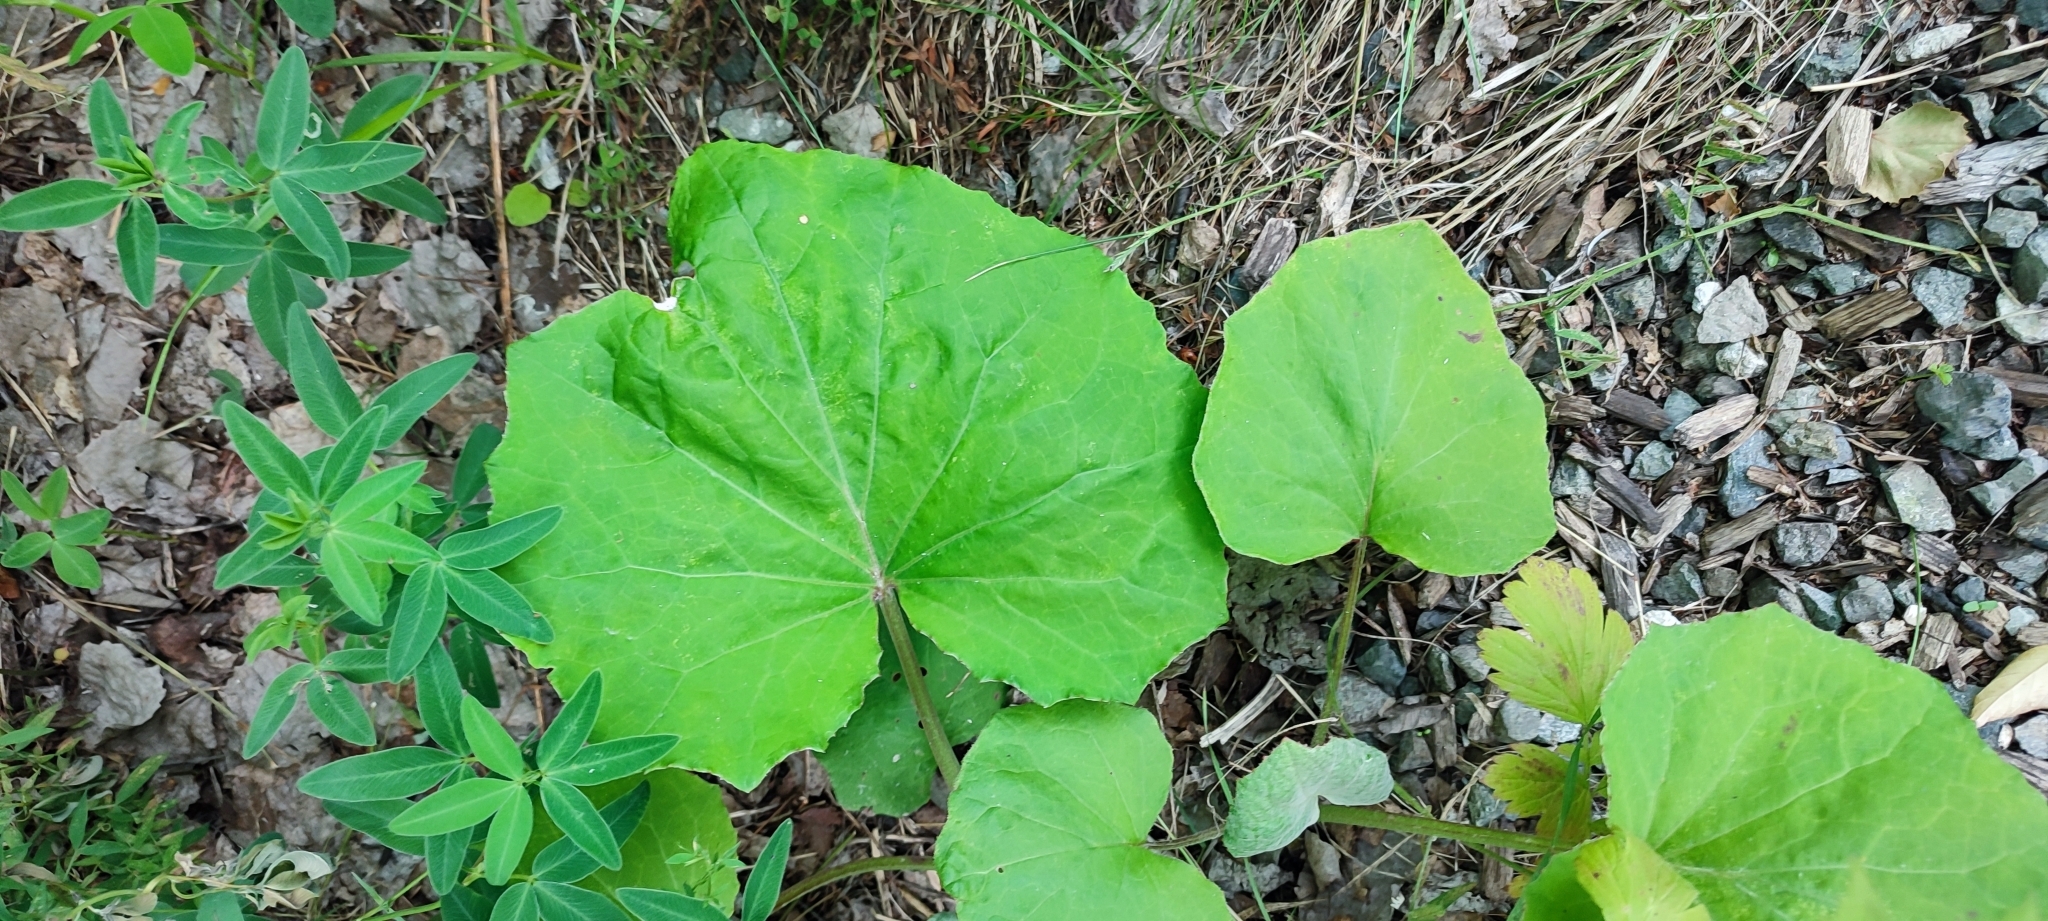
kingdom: Plantae
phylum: Tracheophyta
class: Magnoliopsida
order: Asterales
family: Asteraceae
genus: Tussilago
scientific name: Tussilago farfara
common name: Coltsfoot
